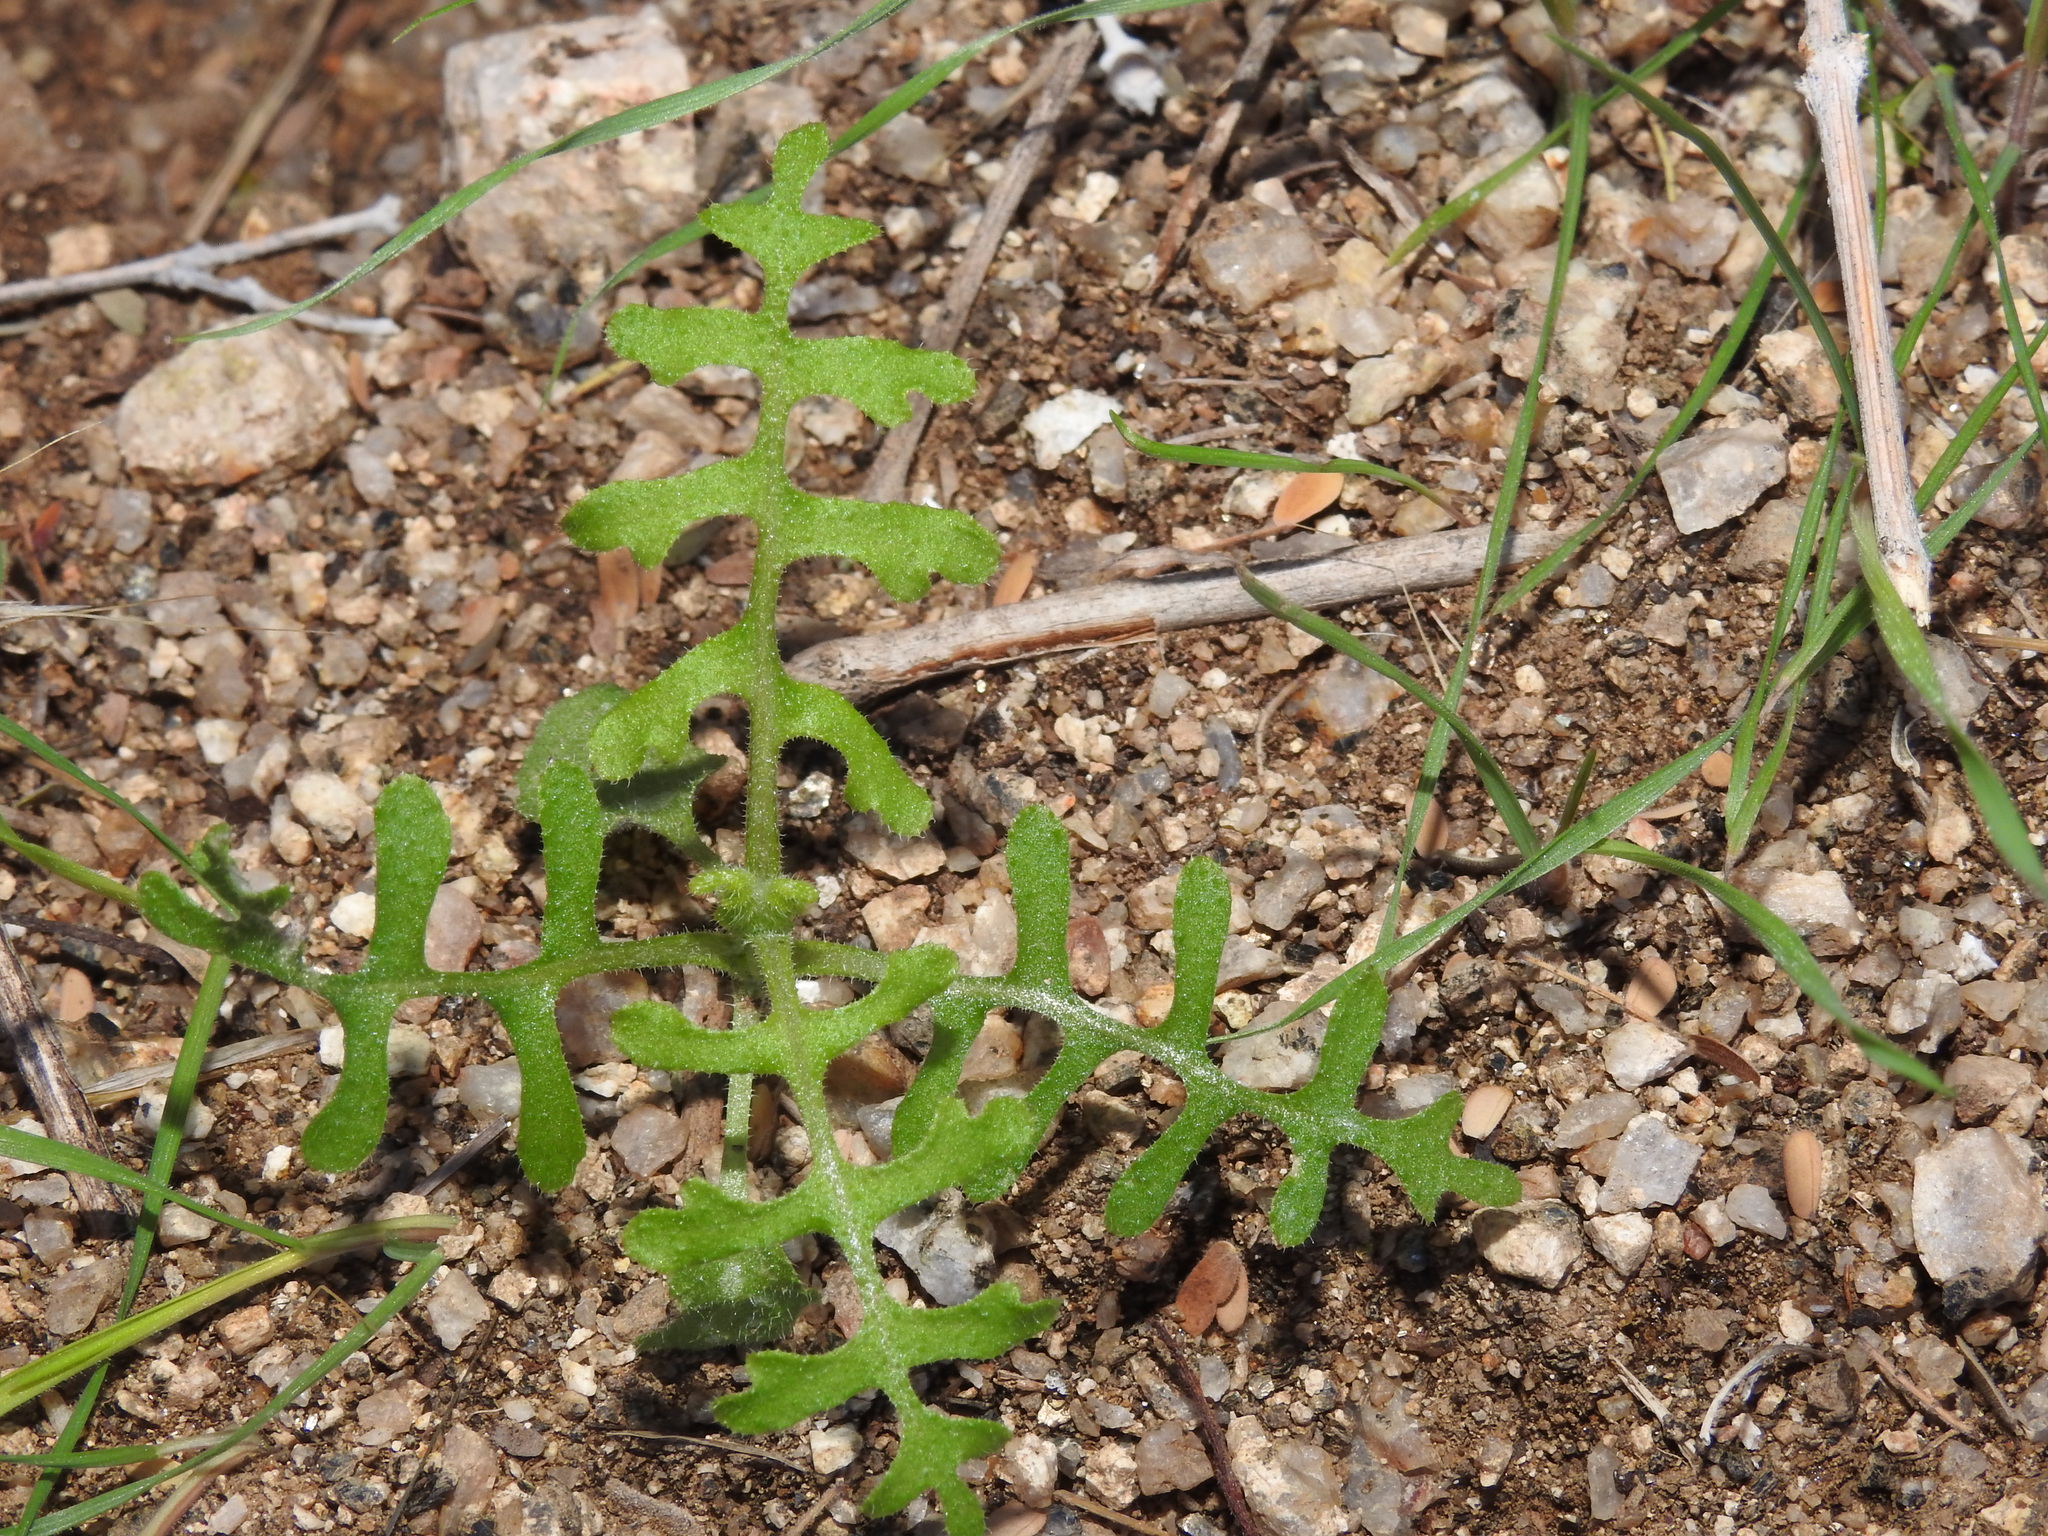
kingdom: Plantae
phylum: Tracheophyta
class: Magnoliopsida
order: Boraginales
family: Hydrophyllaceae
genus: Pholistoma
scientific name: Pholistoma auritum
